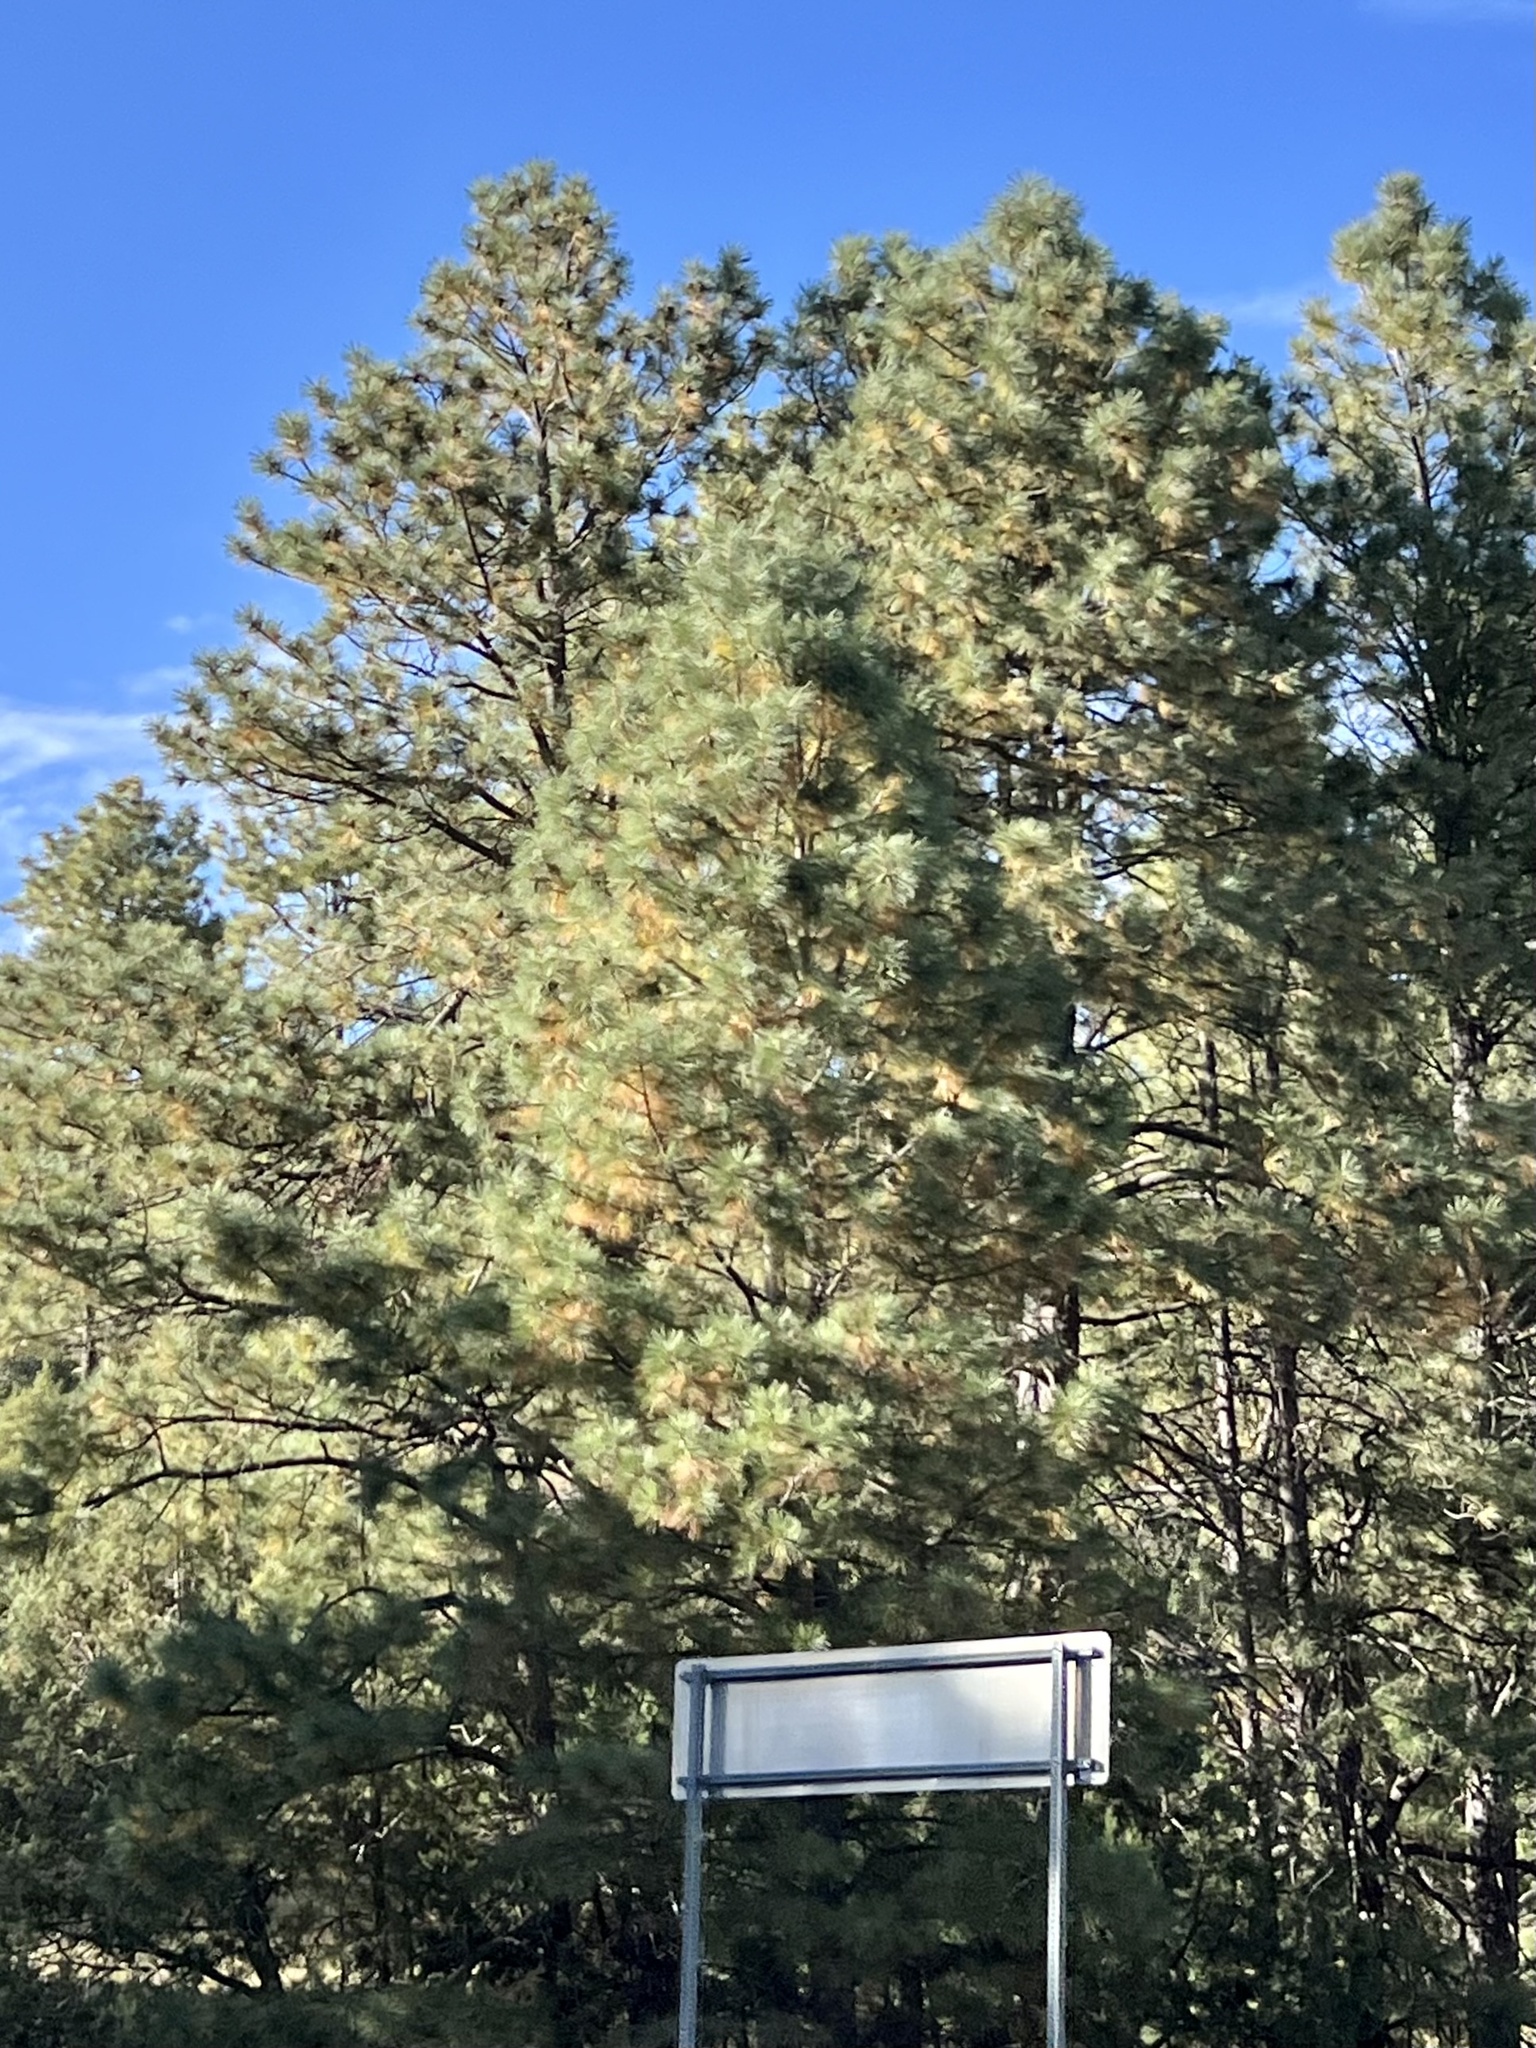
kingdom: Plantae
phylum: Tracheophyta
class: Pinopsida
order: Pinales
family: Pinaceae
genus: Pinus
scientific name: Pinus ponderosa
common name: Western yellow-pine
